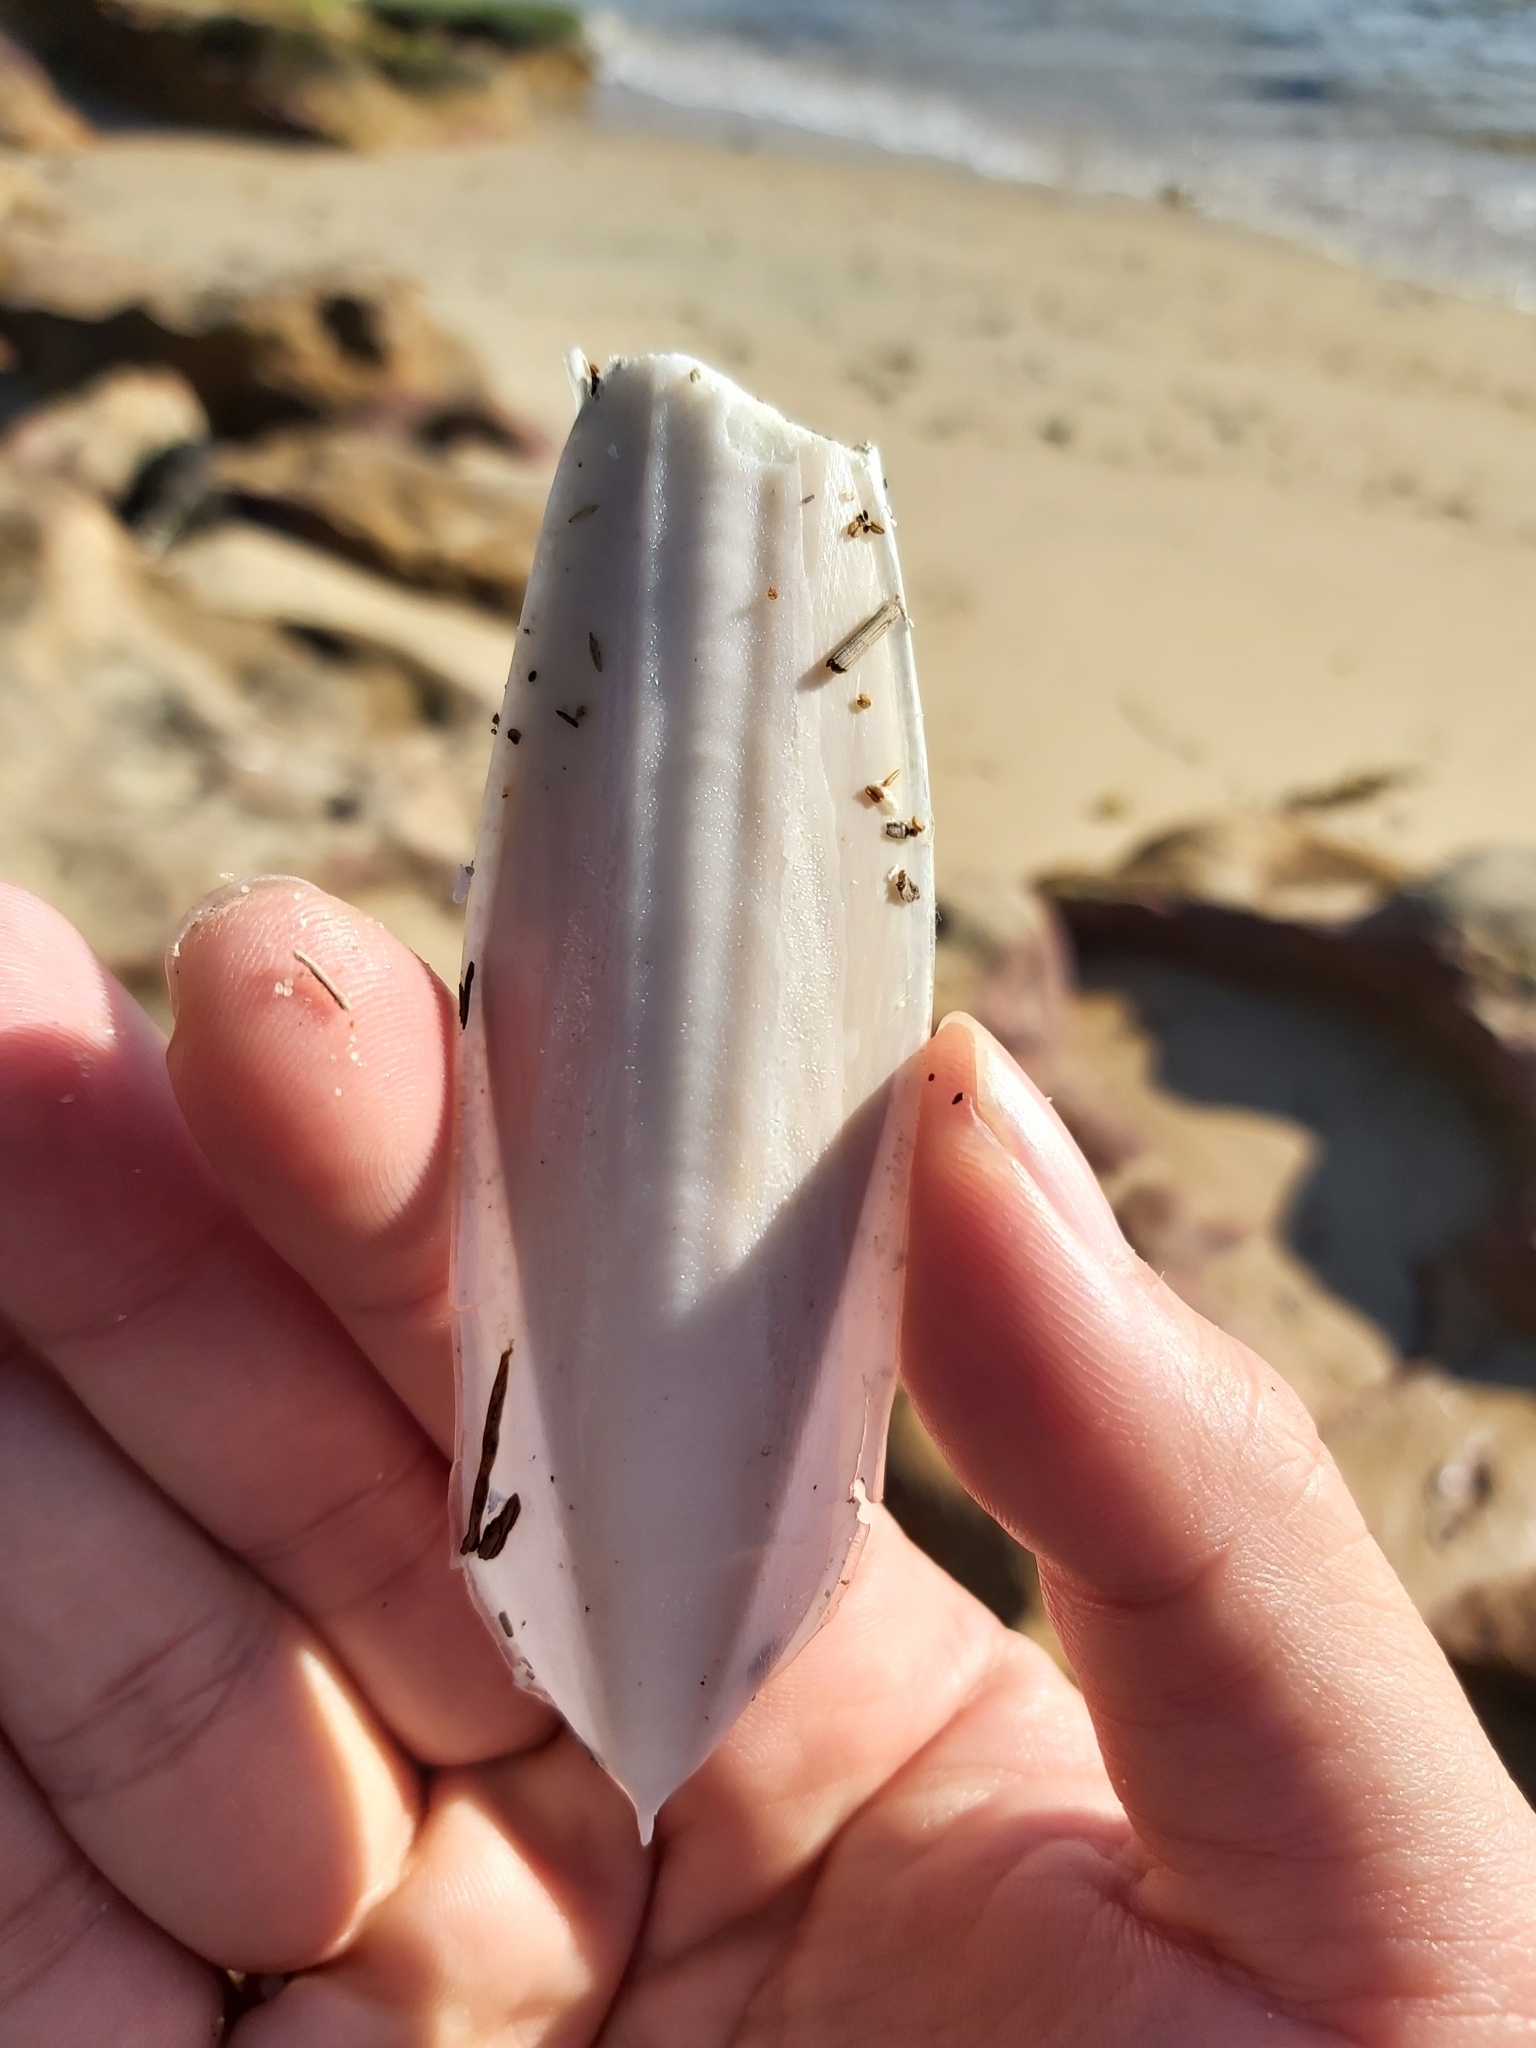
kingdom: Animalia
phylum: Mollusca
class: Cephalopoda
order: Sepiida
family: Sepiidae
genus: Ascarosepion
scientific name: Ascarosepion plangon
